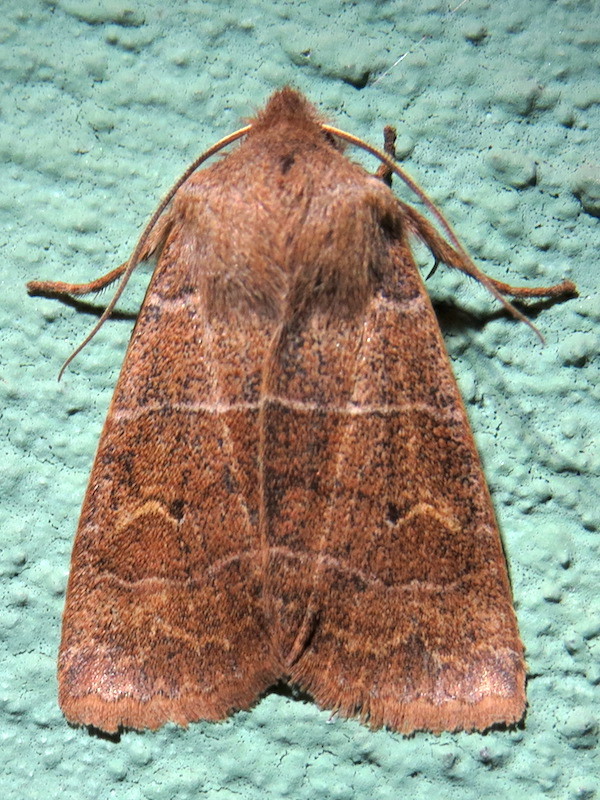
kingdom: Animalia
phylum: Arthropoda
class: Insecta
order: Lepidoptera
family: Noctuidae
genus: Eupsilia
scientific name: Eupsilia morrisoni
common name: Morrison's sallow
